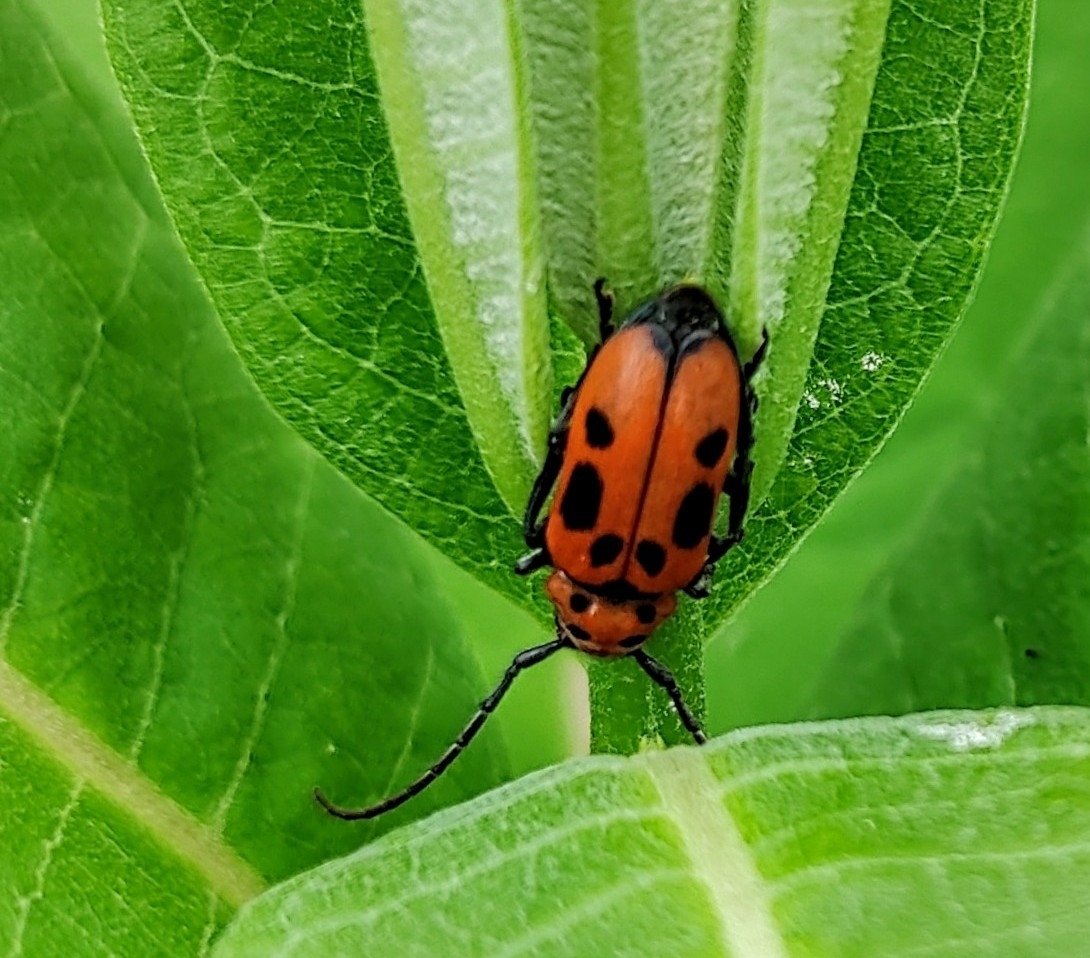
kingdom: Animalia
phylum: Arthropoda
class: Insecta
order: Coleoptera
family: Cerambycidae
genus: Tetraopes
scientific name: Tetraopes tetrophthalmus
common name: Red milkweed beetle
